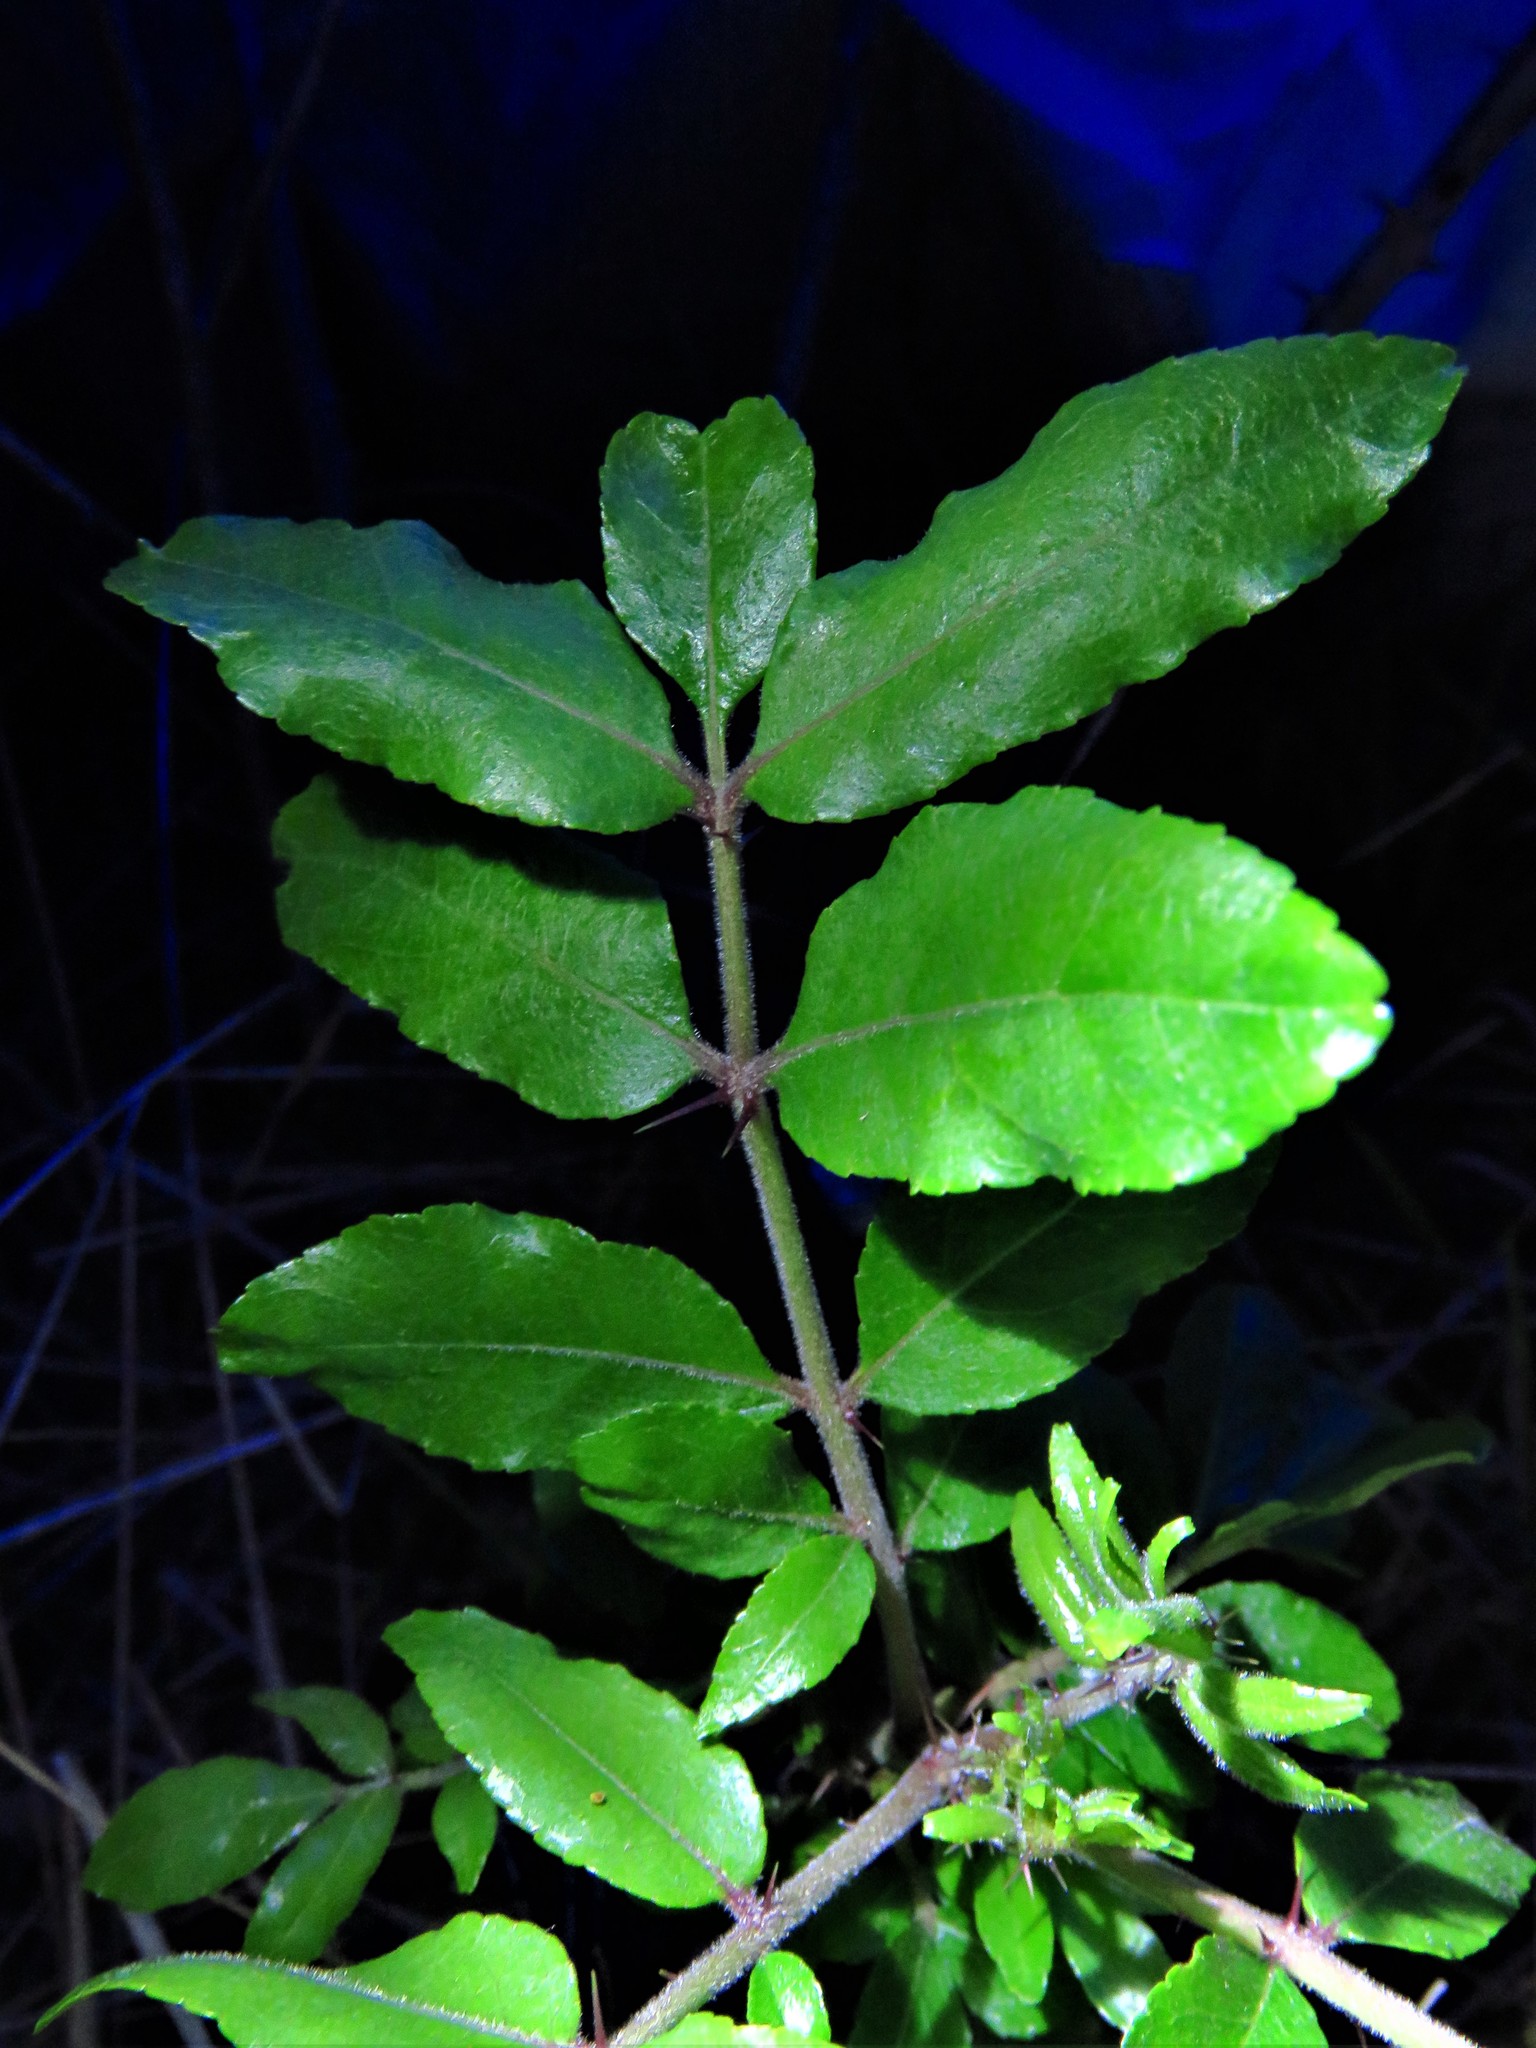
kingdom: Plantae
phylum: Tracheophyta
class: Magnoliopsida
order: Sapindales
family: Rutaceae
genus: Zanthoxylum
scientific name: Zanthoxylum clava-herculis
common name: Hercules'-club
